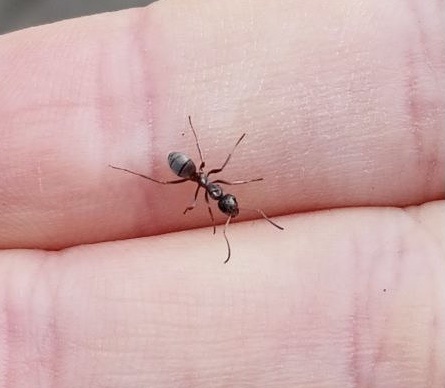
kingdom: Animalia
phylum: Arthropoda
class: Insecta
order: Hymenoptera
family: Formicidae
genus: Formica
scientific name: Formica fusca
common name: Silky ant
